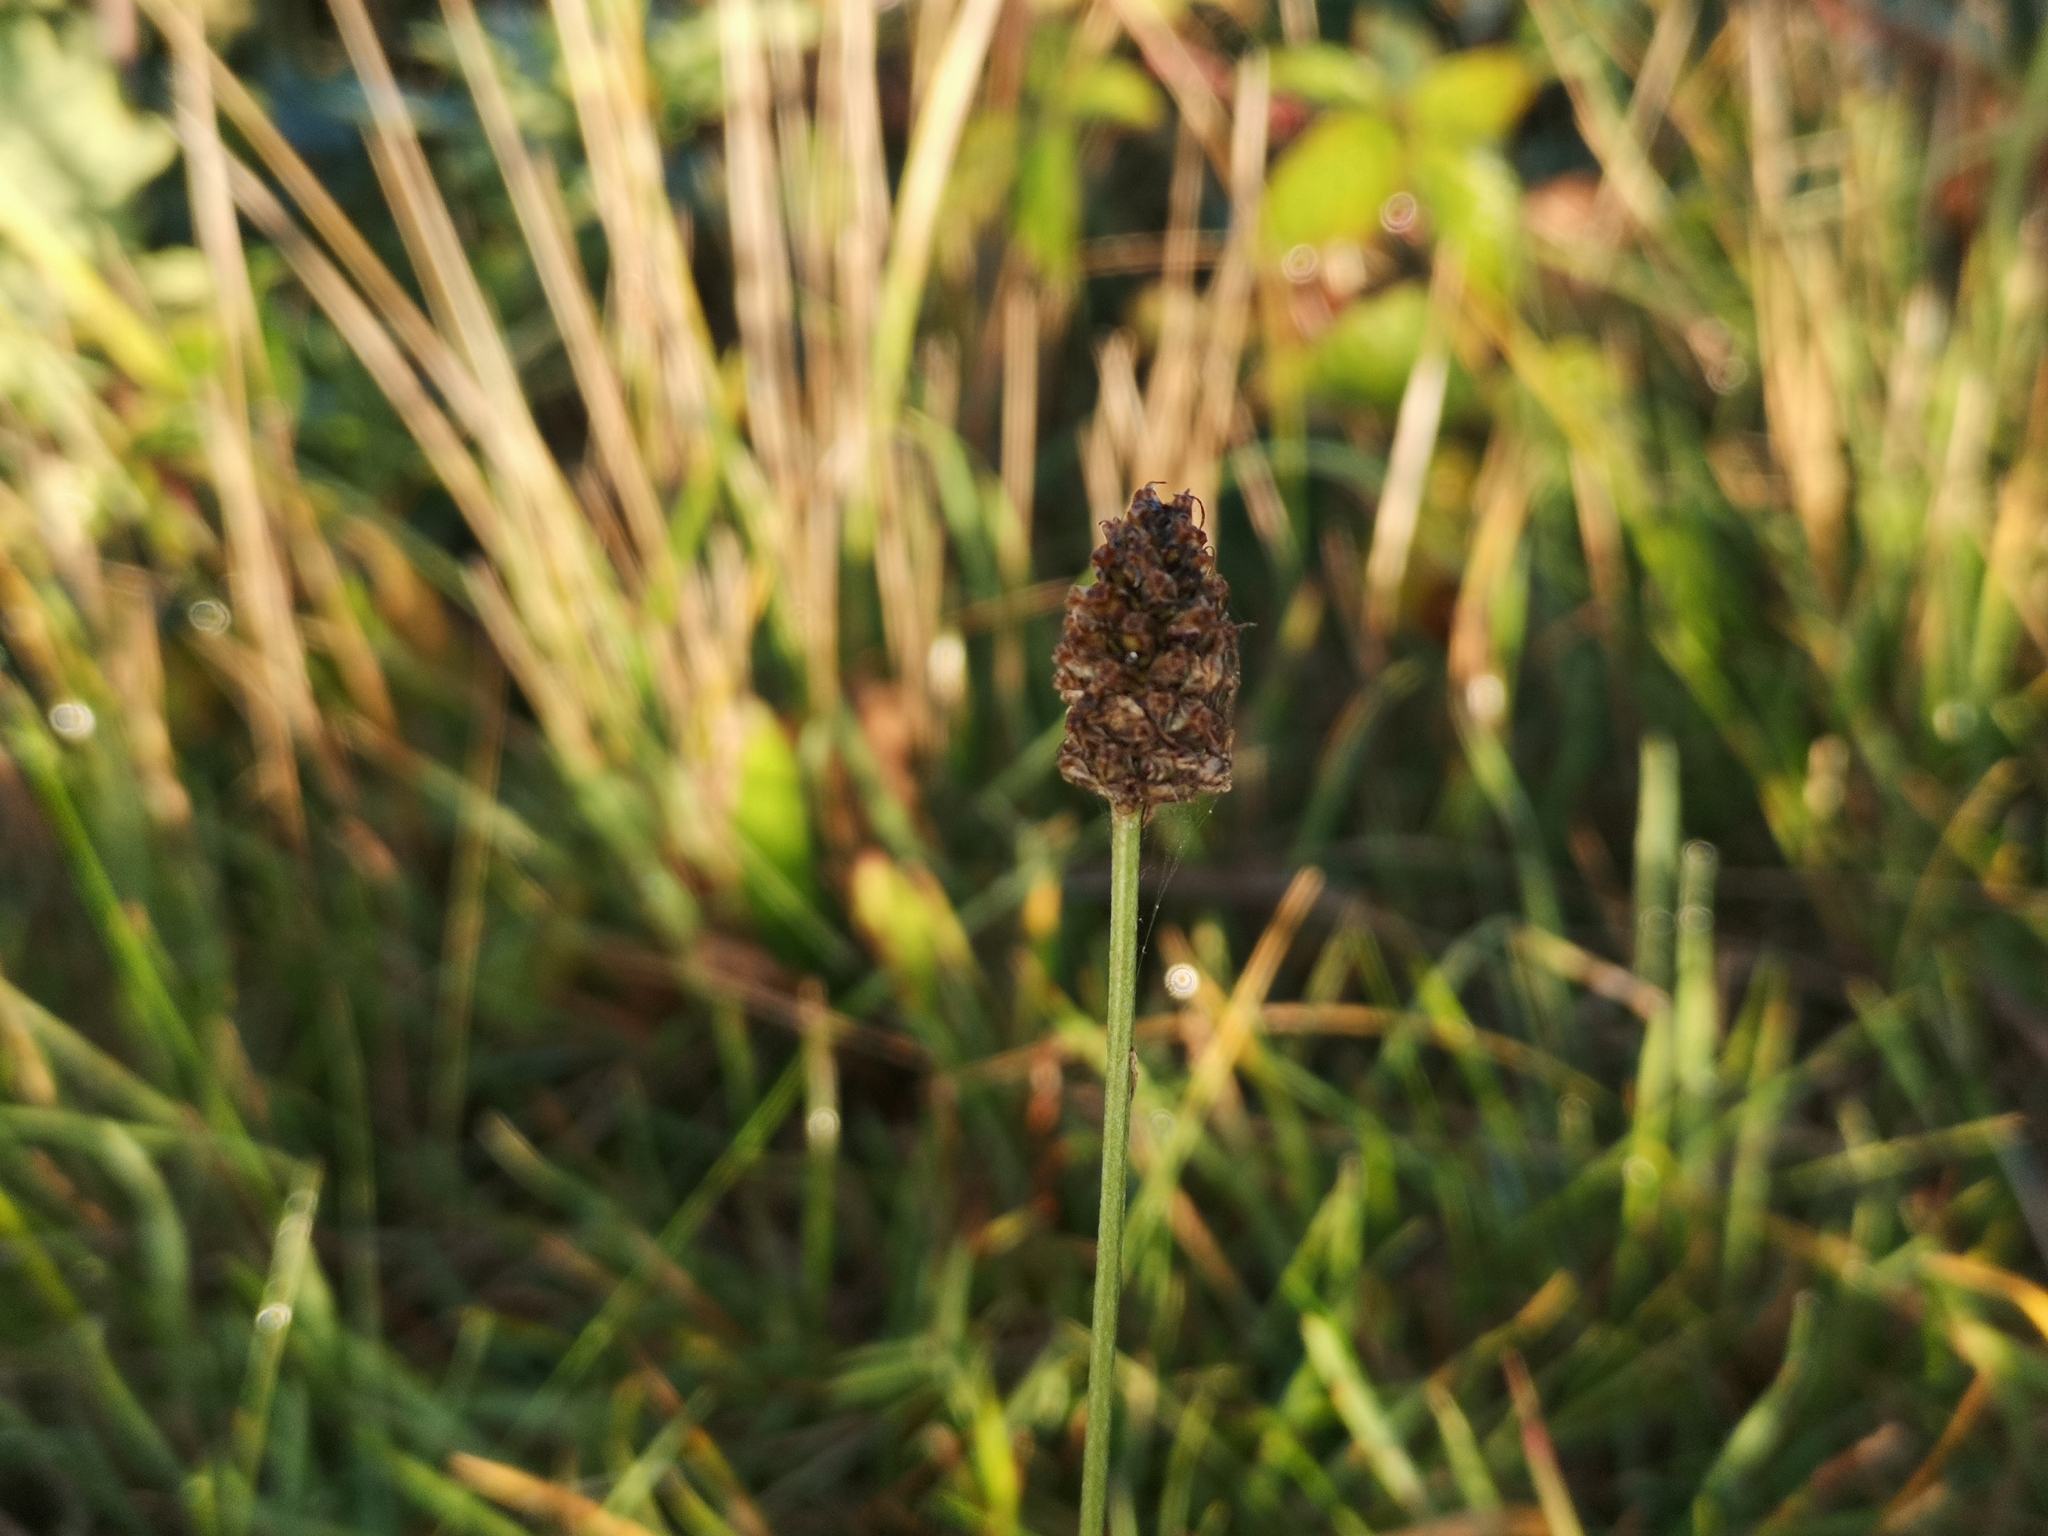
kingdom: Plantae
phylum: Tracheophyta
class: Magnoliopsida
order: Lamiales
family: Plantaginaceae
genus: Plantago
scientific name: Plantago lanceolata
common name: Ribwort plantain
